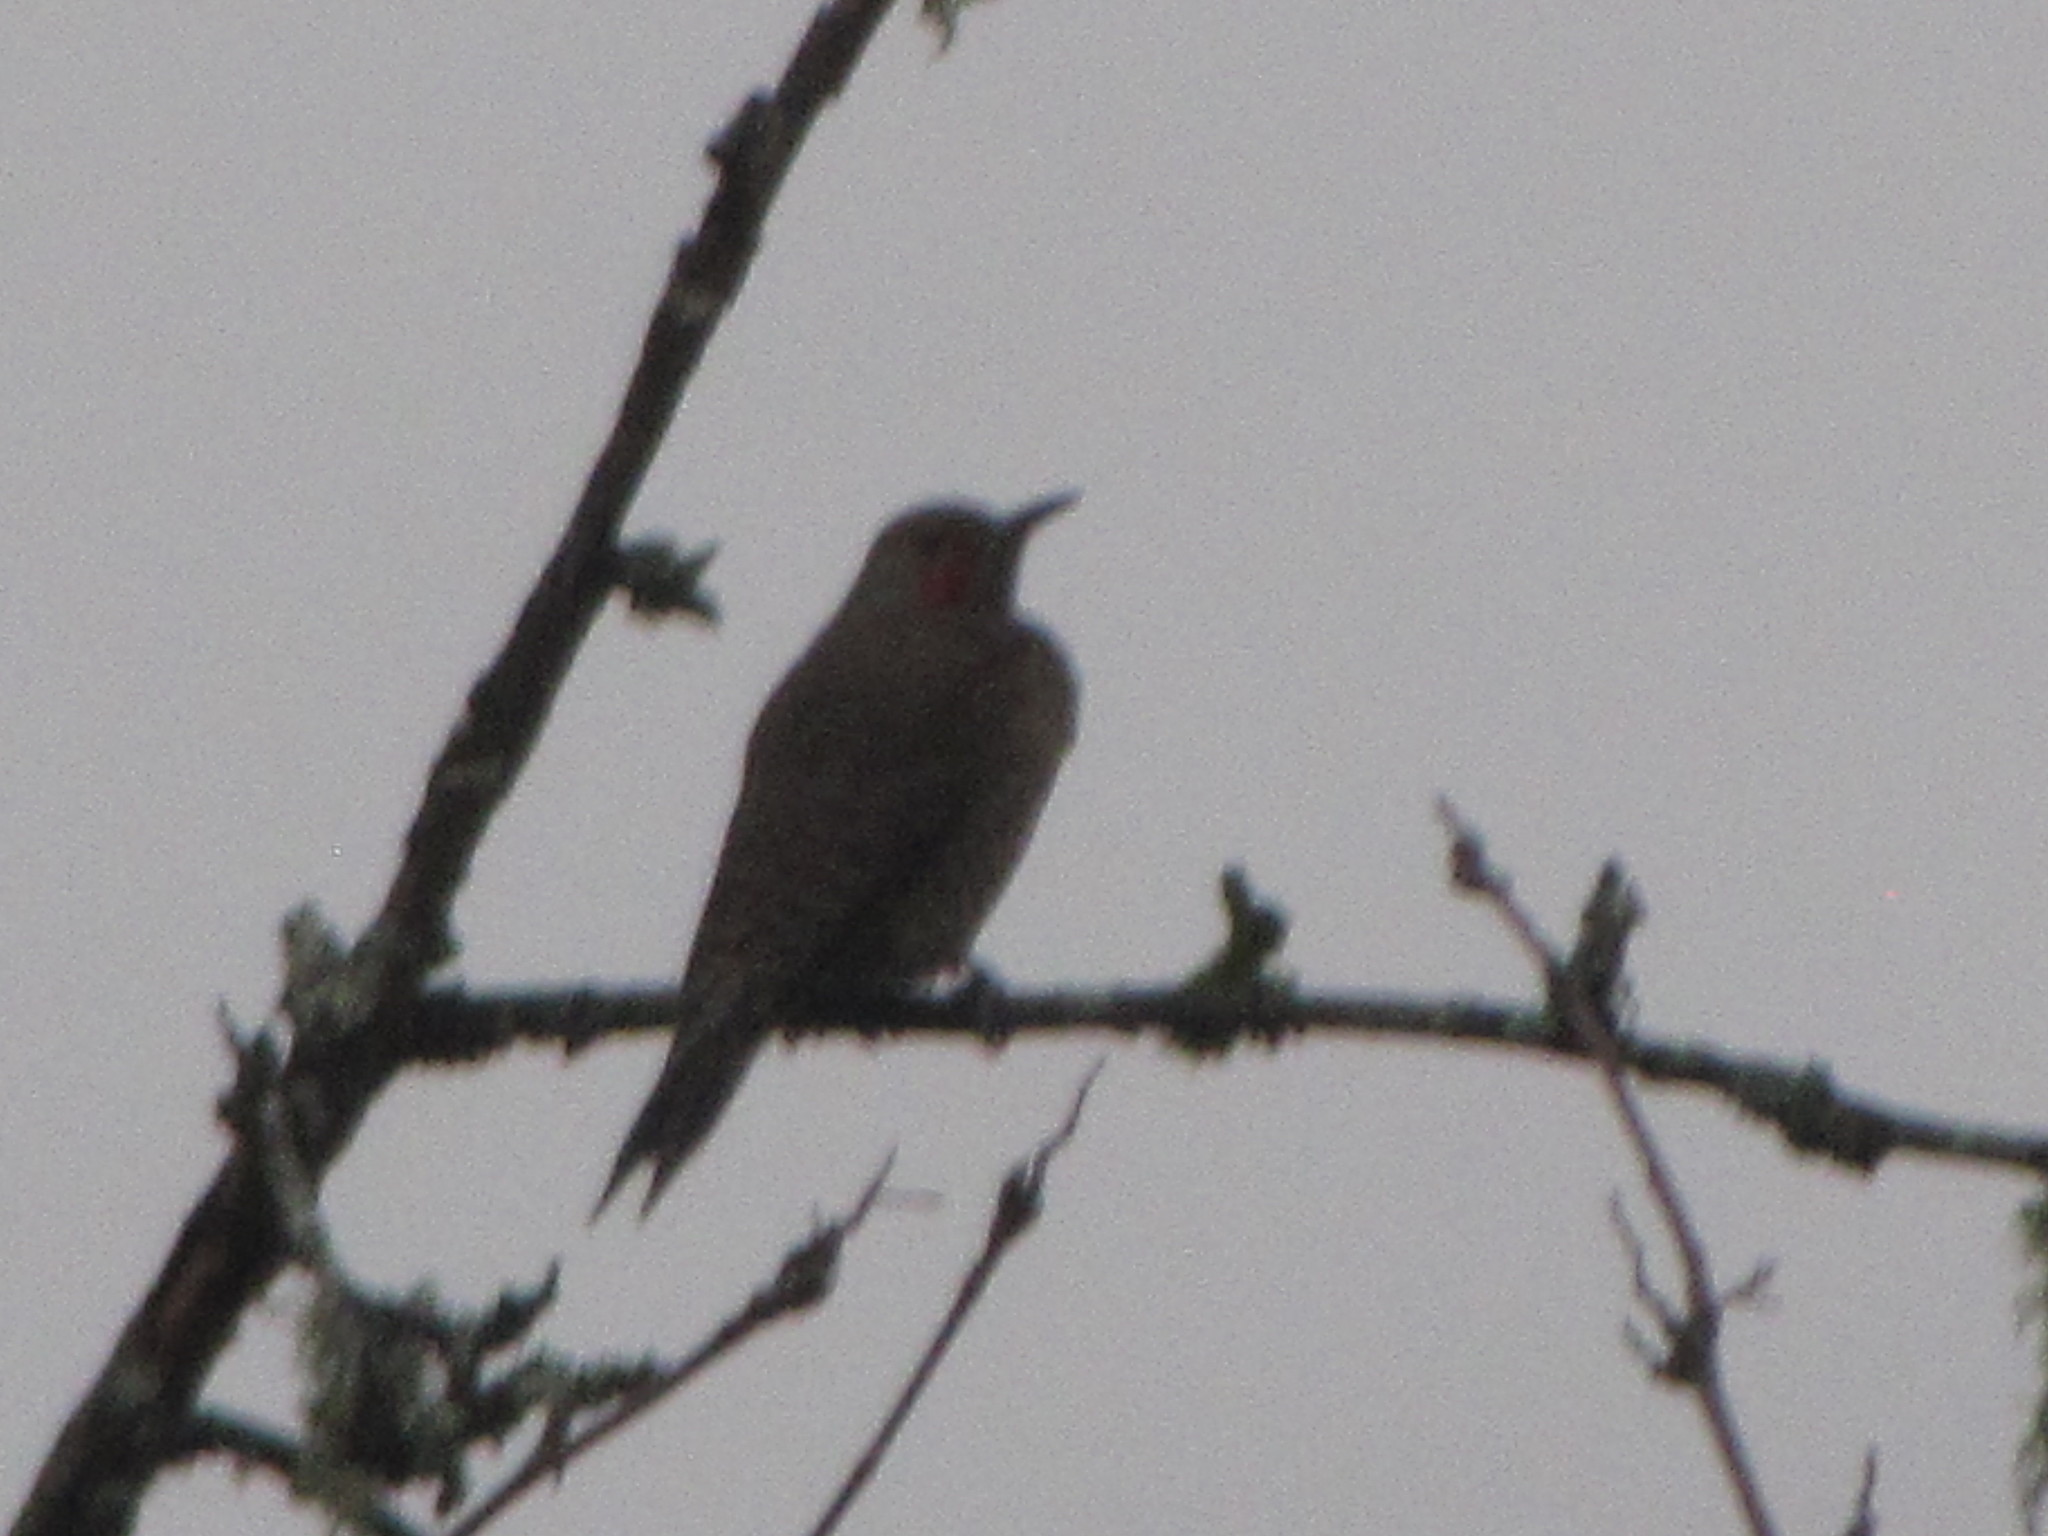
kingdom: Animalia
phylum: Chordata
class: Aves
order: Piciformes
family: Picidae
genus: Colaptes
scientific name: Colaptes auratus
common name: Northern flicker
